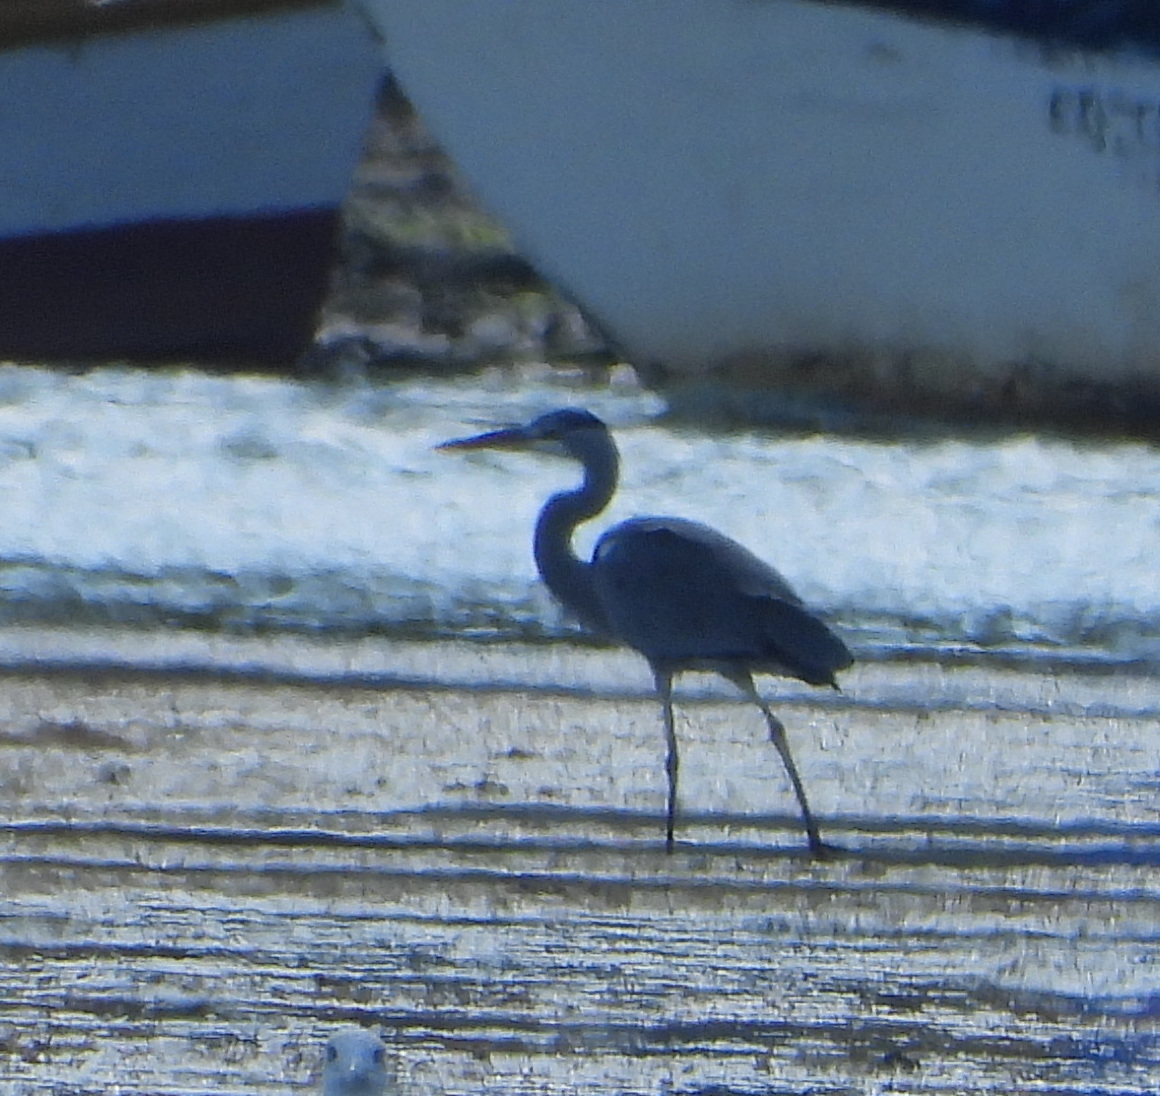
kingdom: Animalia
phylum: Chordata
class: Aves
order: Pelecaniformes
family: Ardeidae
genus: Ardea
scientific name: Ardea cinerea
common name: Grey heron
